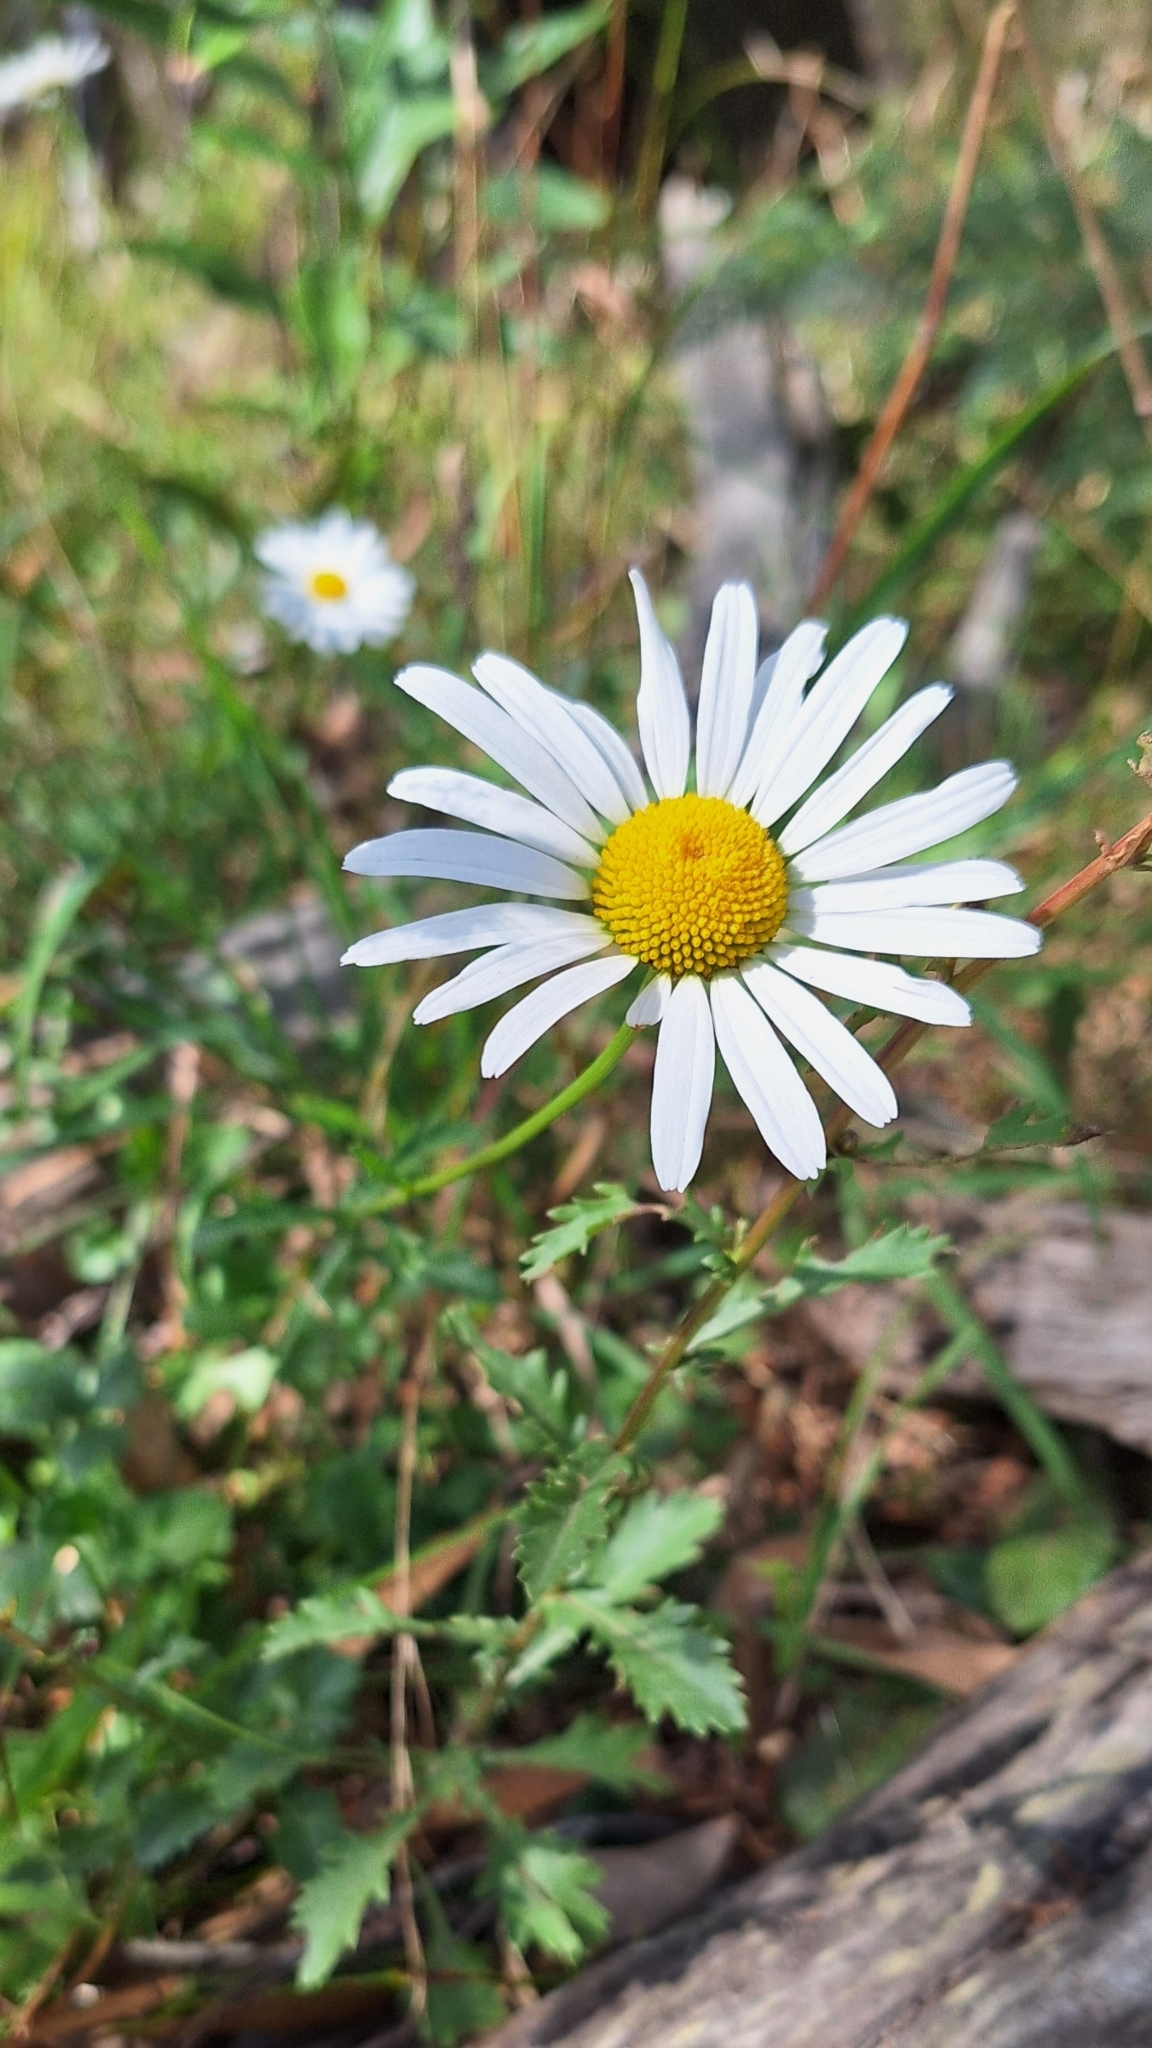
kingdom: Plantae
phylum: Tracheophyta
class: Magnoliopsida
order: Asterales
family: Asteraceae
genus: Leucanthemum
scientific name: Leucanthemum vulgare
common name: Oxeye daisy
